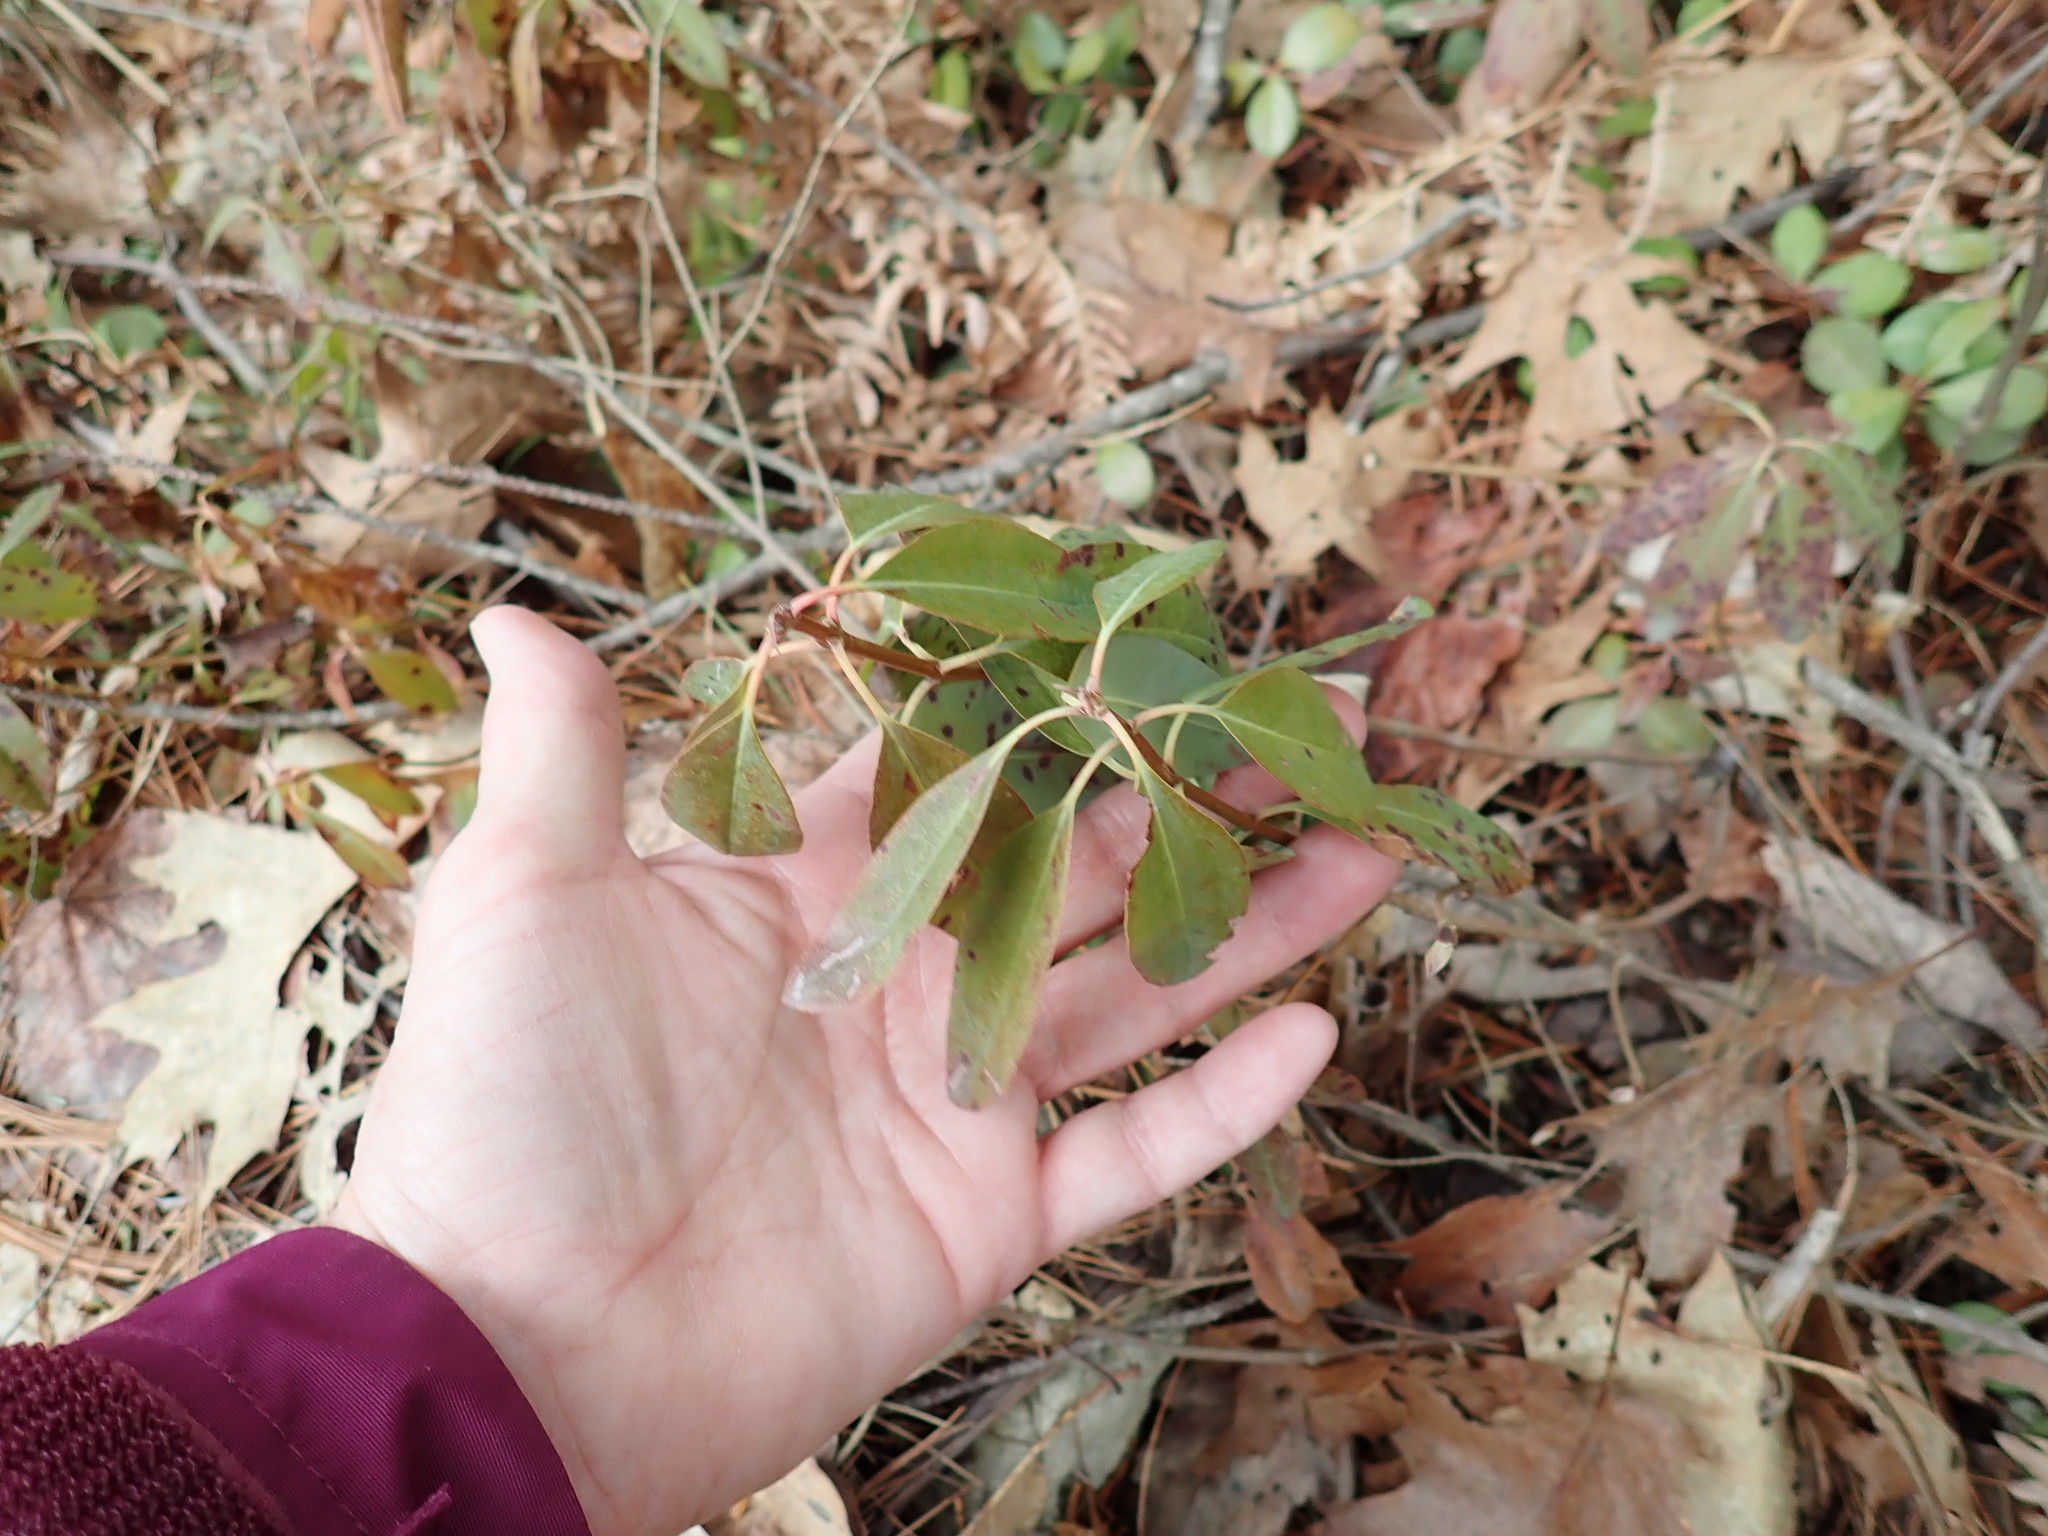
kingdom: Plantae
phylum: Tracheophyta
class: Magnoliopsida
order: Ericales
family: Ericaceae
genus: Kalmia
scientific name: Kalmia angustifolia
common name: Sheep-laurel
